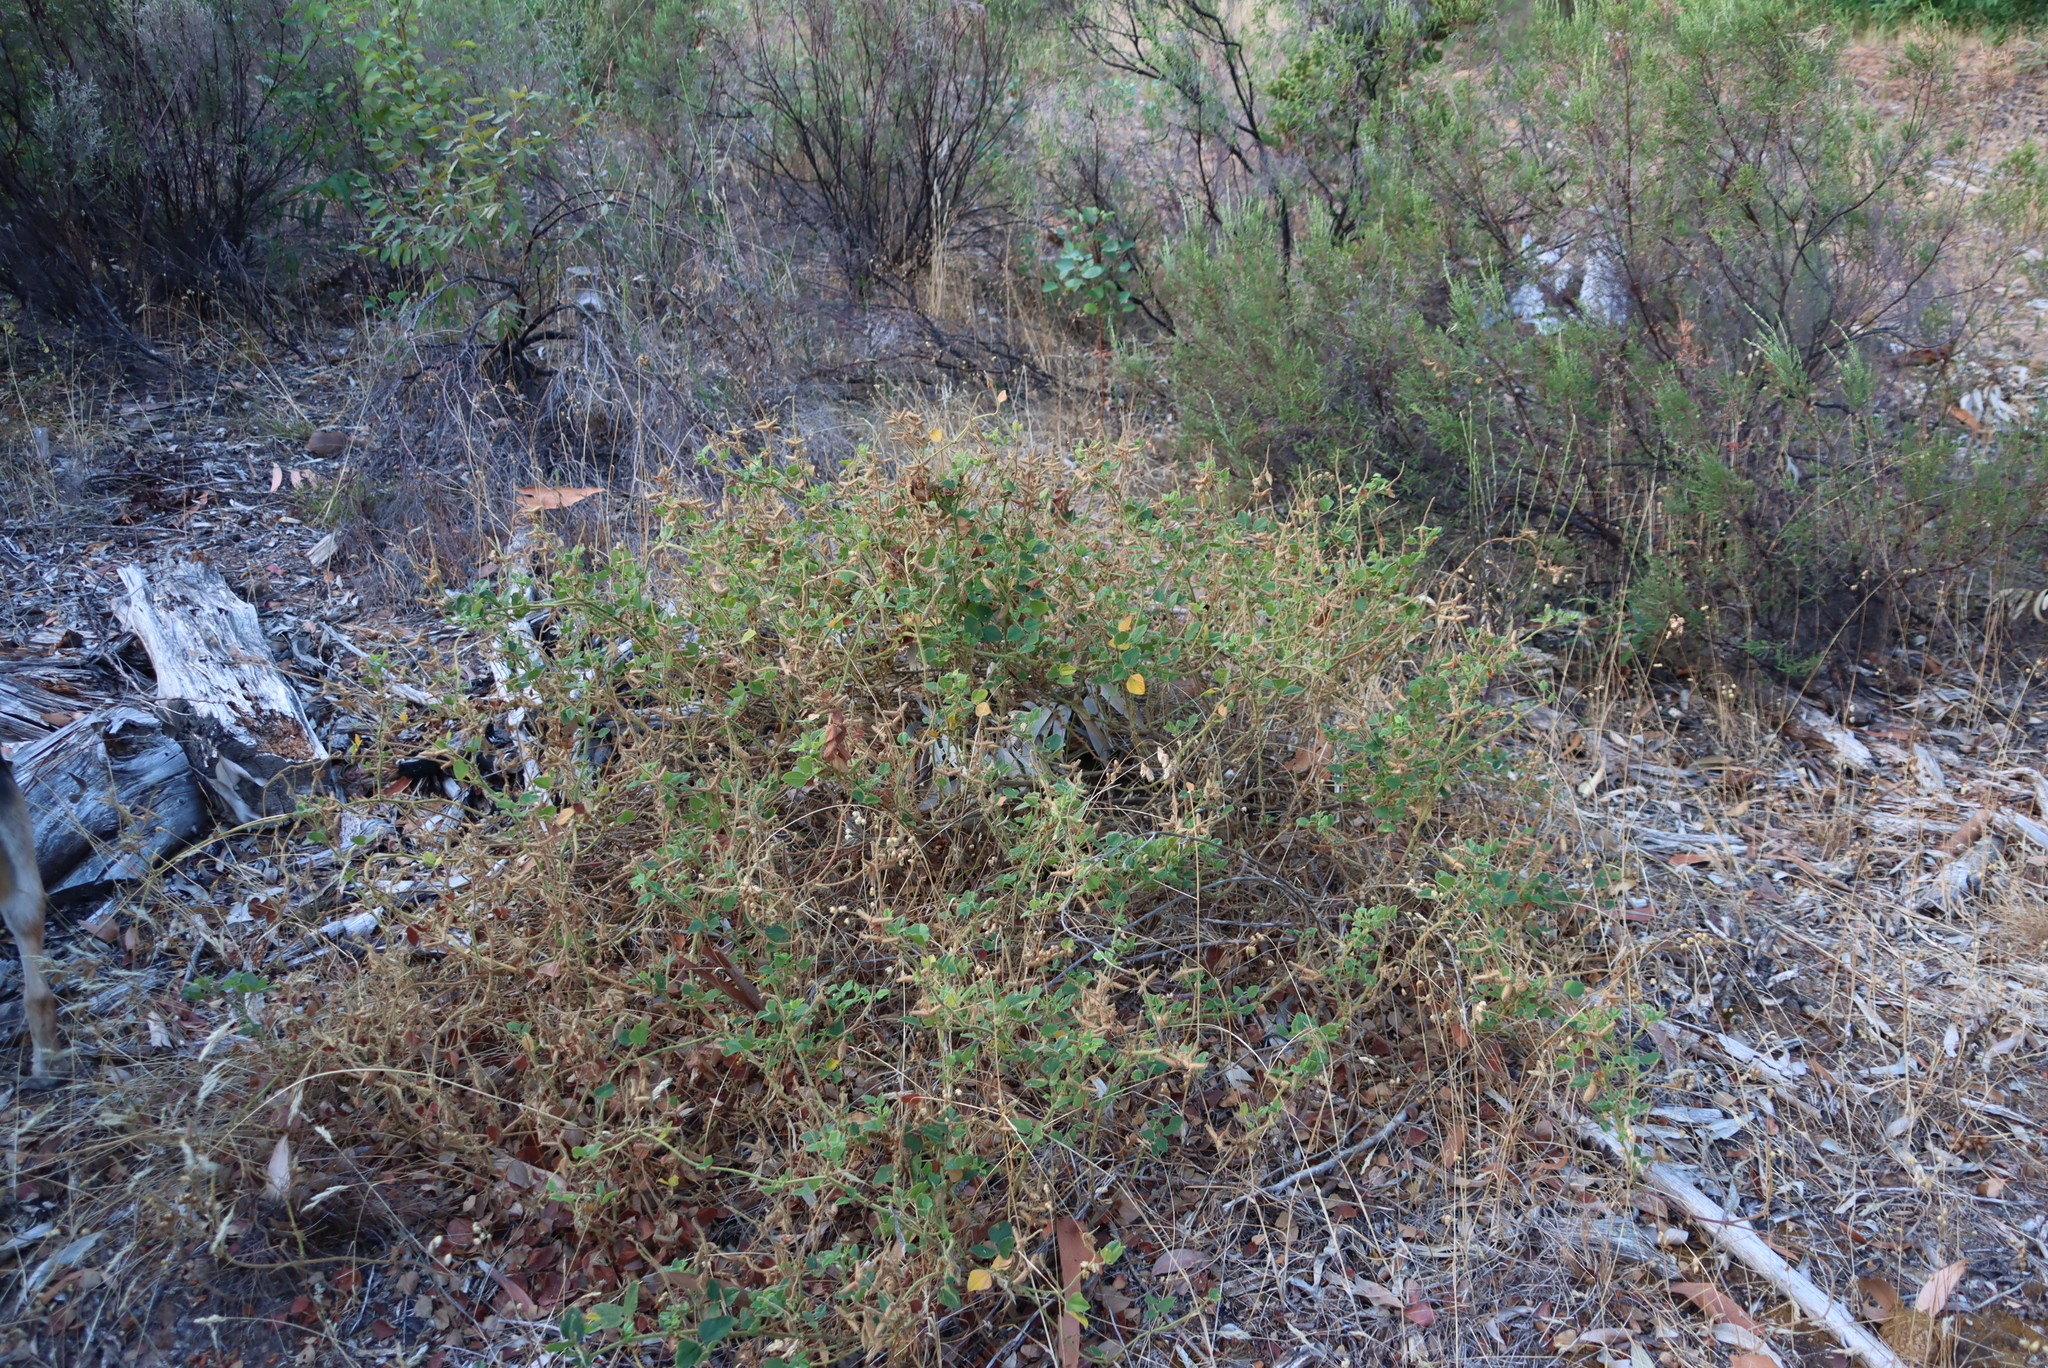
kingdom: Plantae
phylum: Tracheophyta
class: Magnoliopsida
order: Fabales
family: Fabaceae
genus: Bolusafra
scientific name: Bolusafra bituminosa
